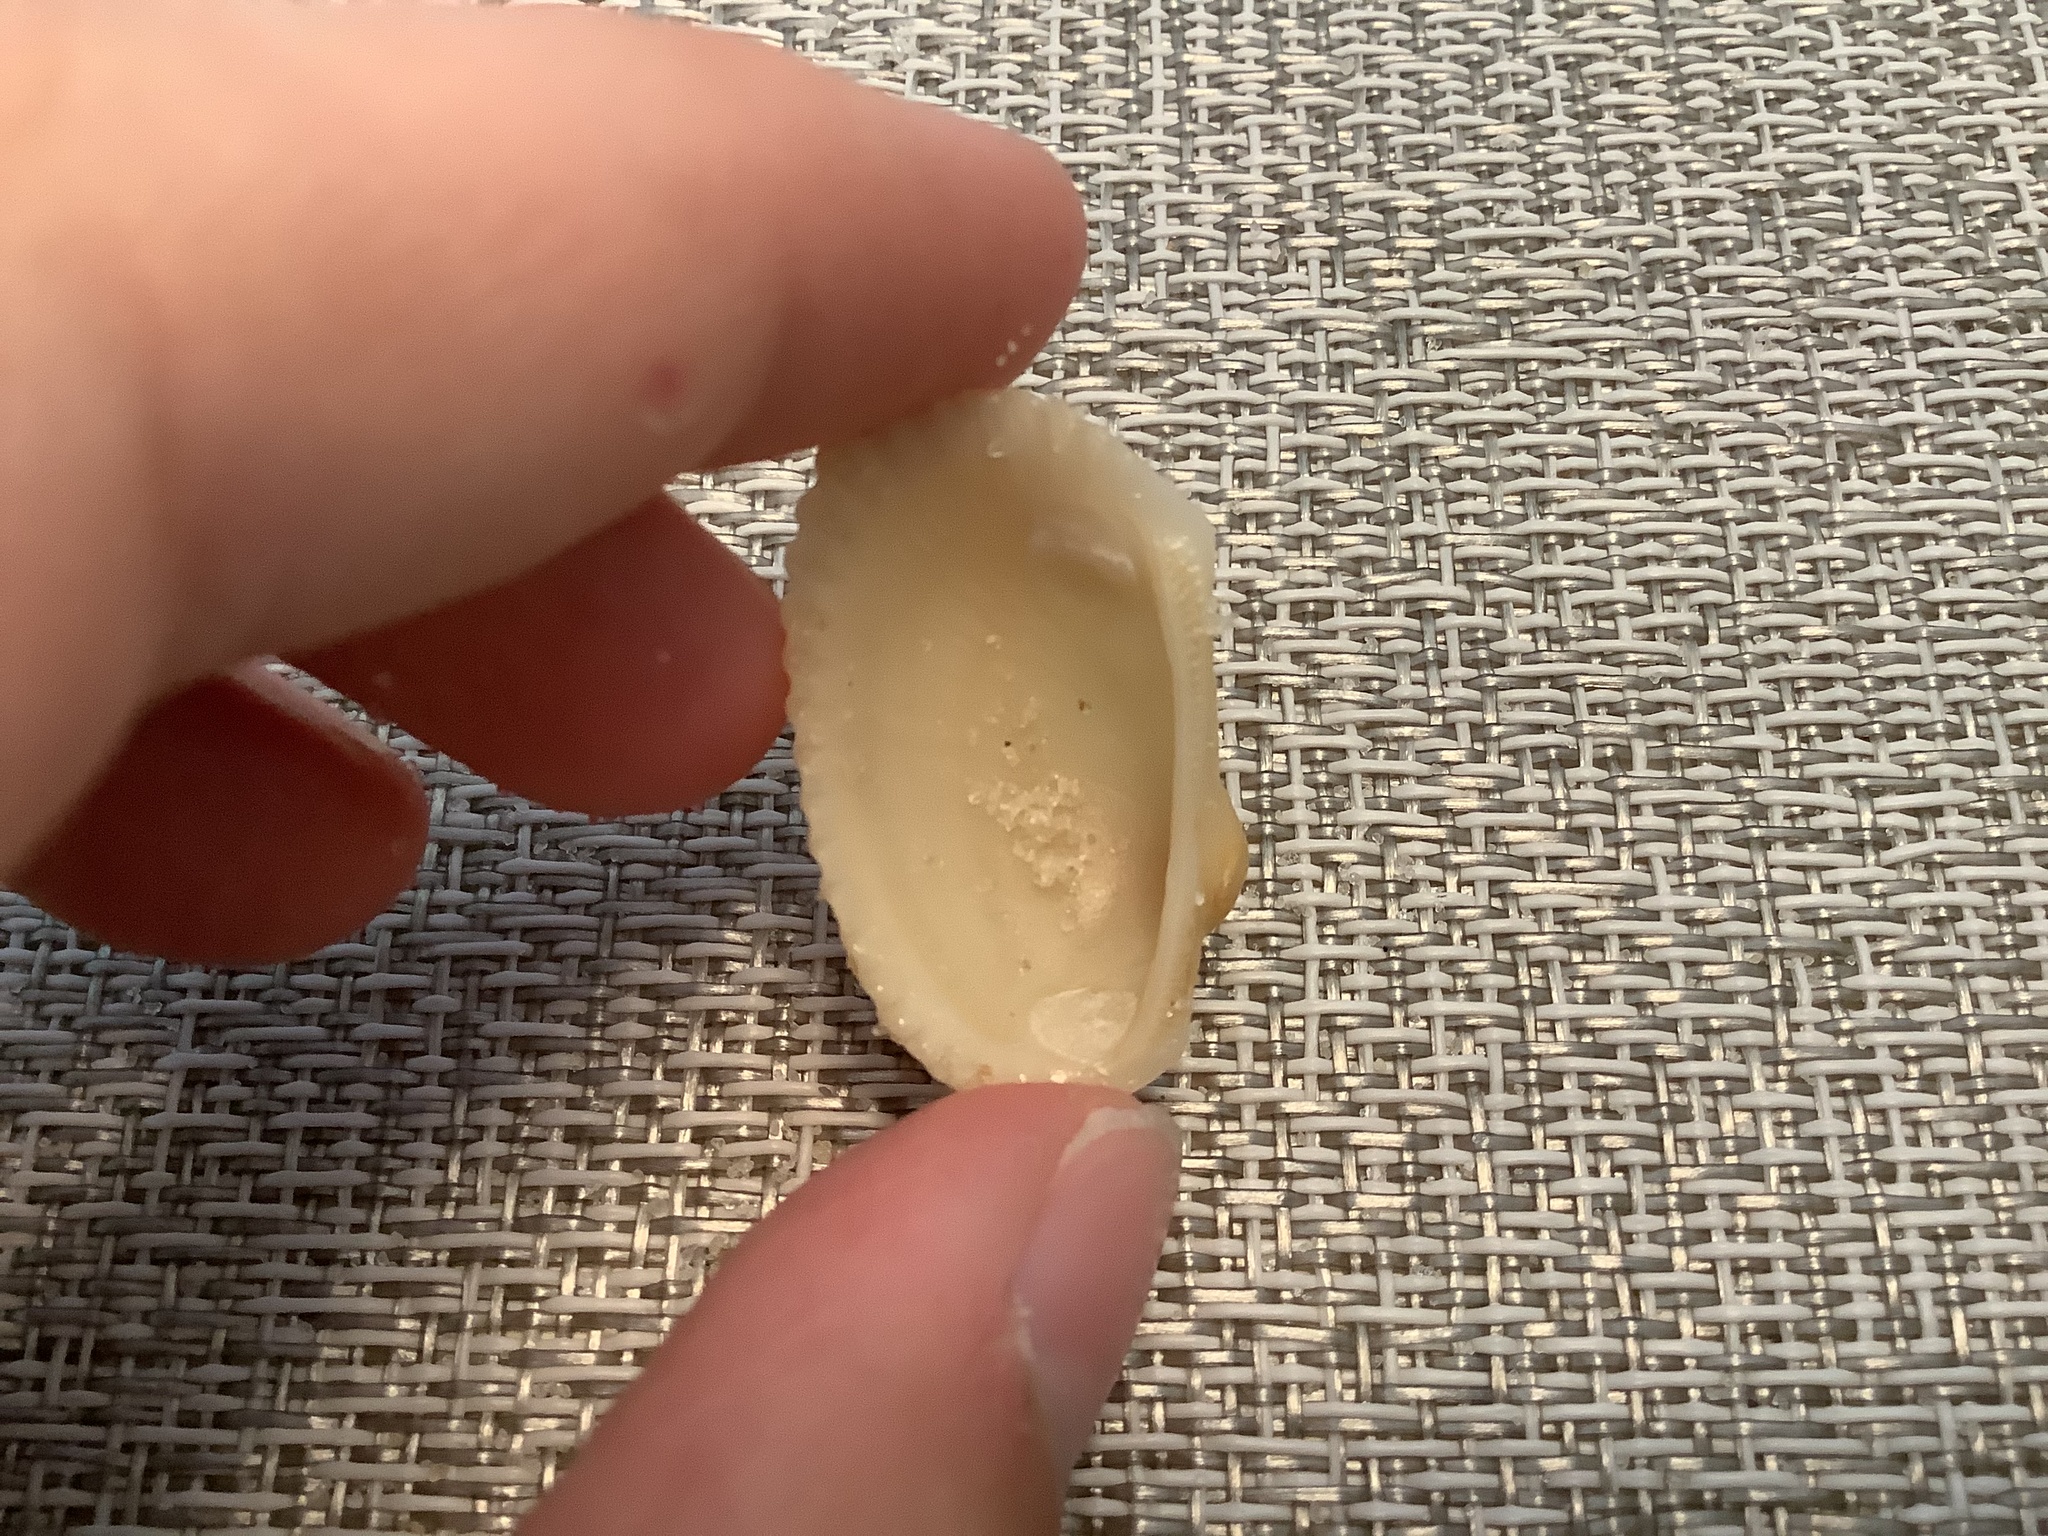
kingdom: Animalia
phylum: Mollusca
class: Bivalvia
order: Arcida
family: Arcidae
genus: Anadara
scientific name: Anadara transversa
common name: Transverse ark
